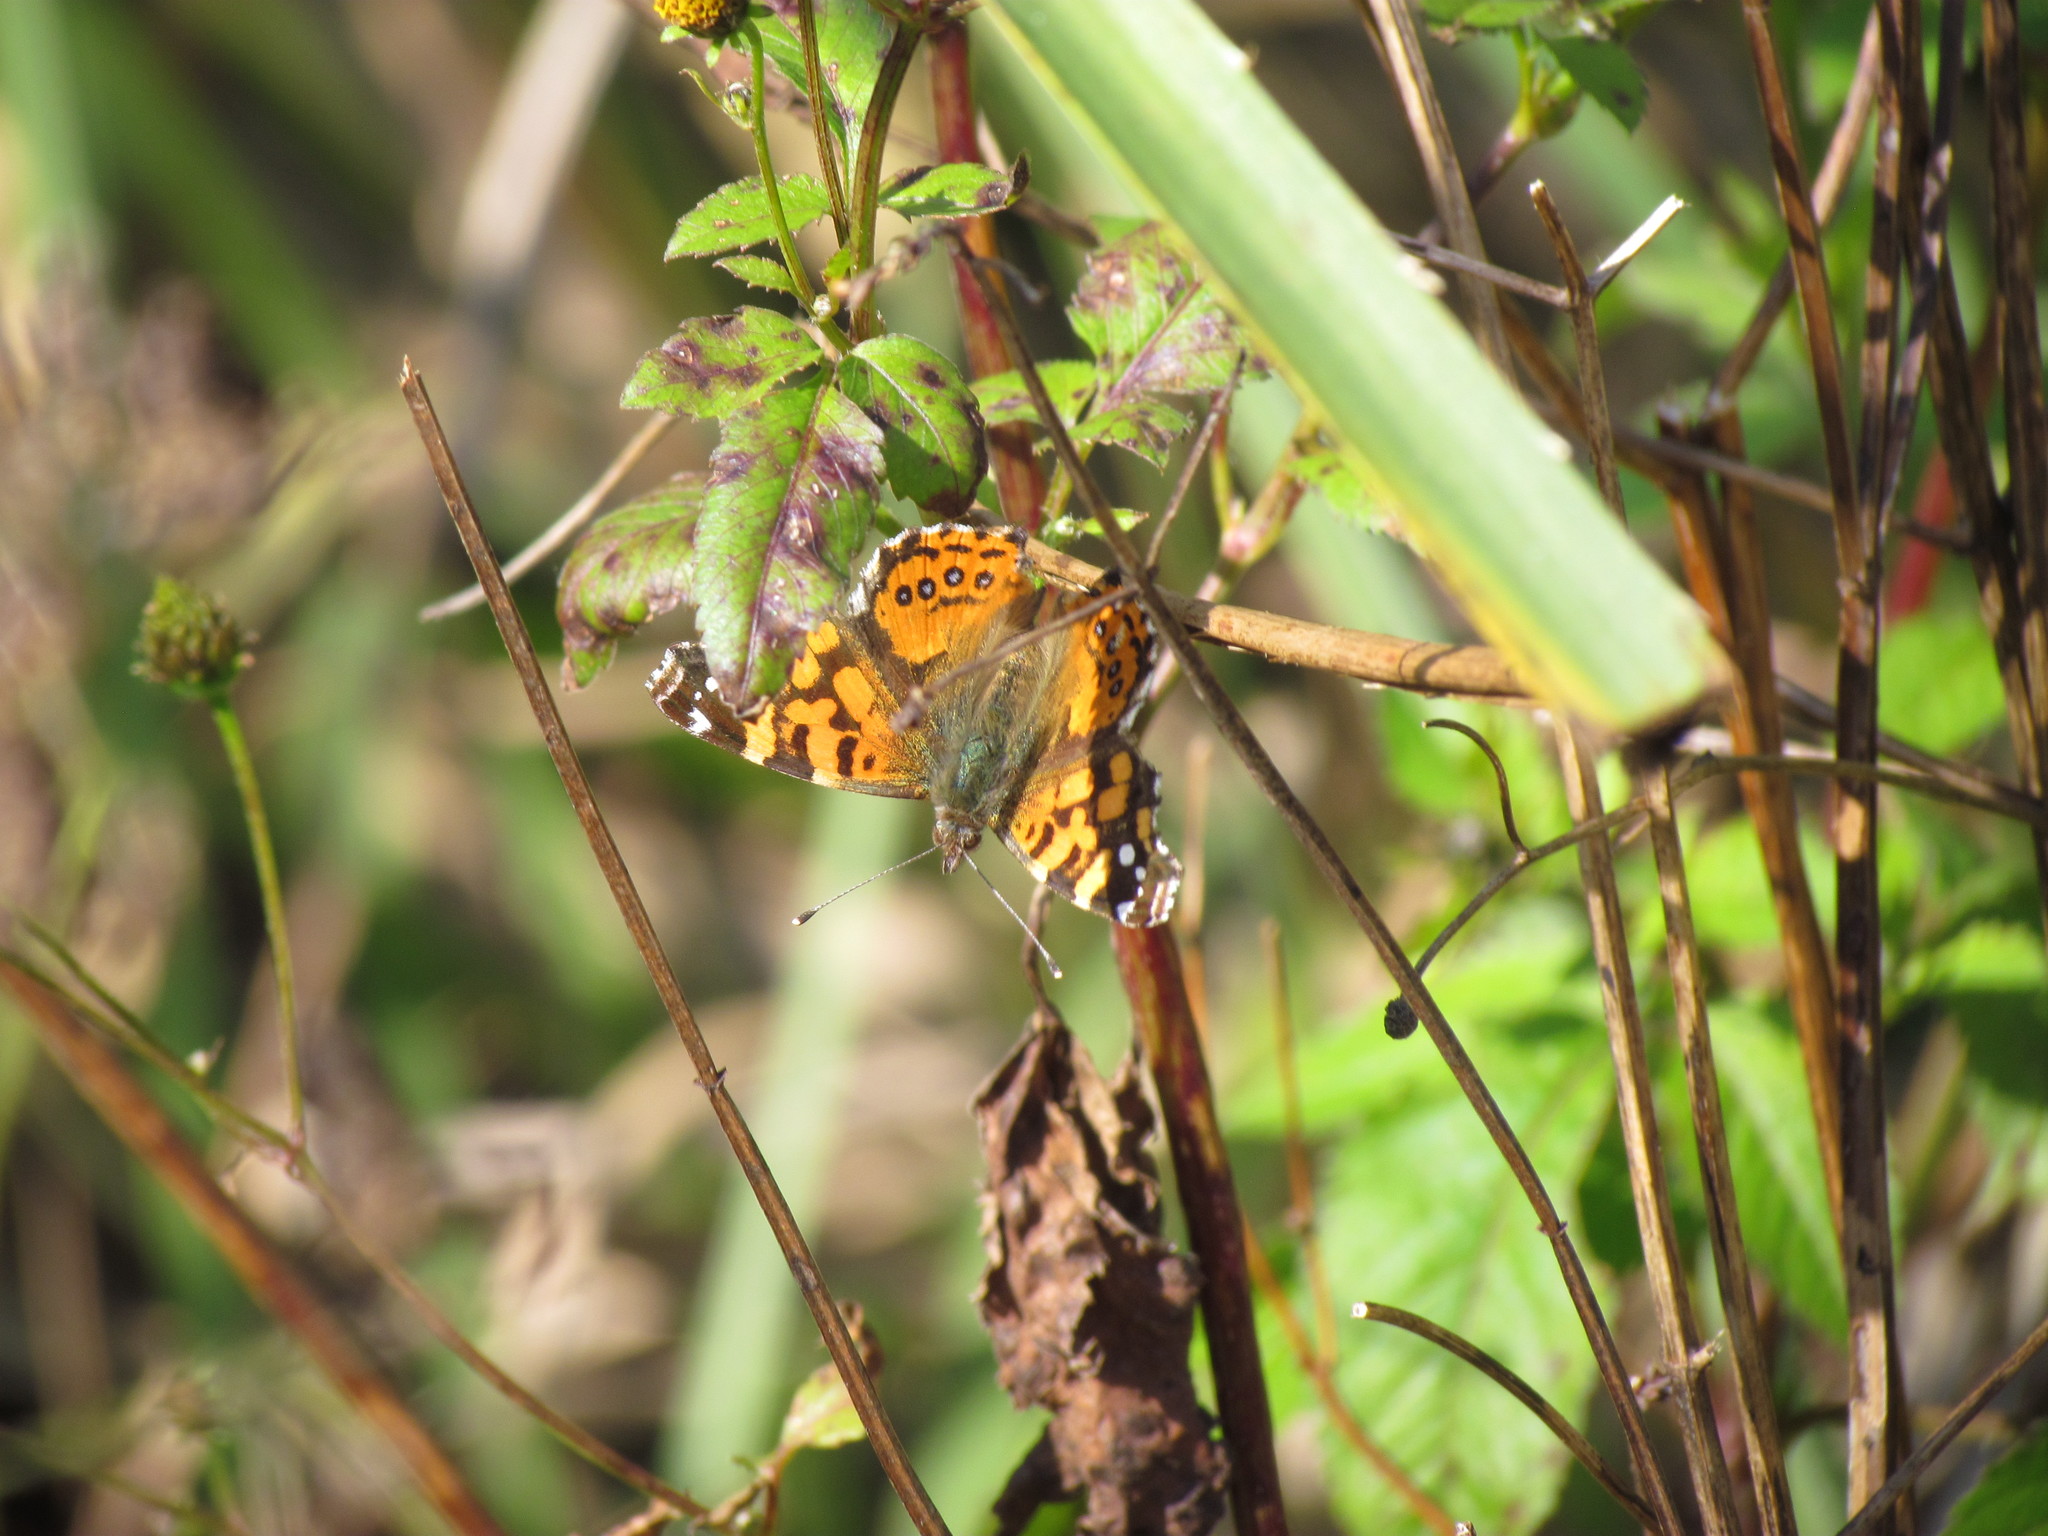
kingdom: Animalia
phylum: Arthropoda
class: Insecta
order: Lepidoptera
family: Nymphalidae
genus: Vanessa
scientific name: Vanessa carye
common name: Subtropical lady
